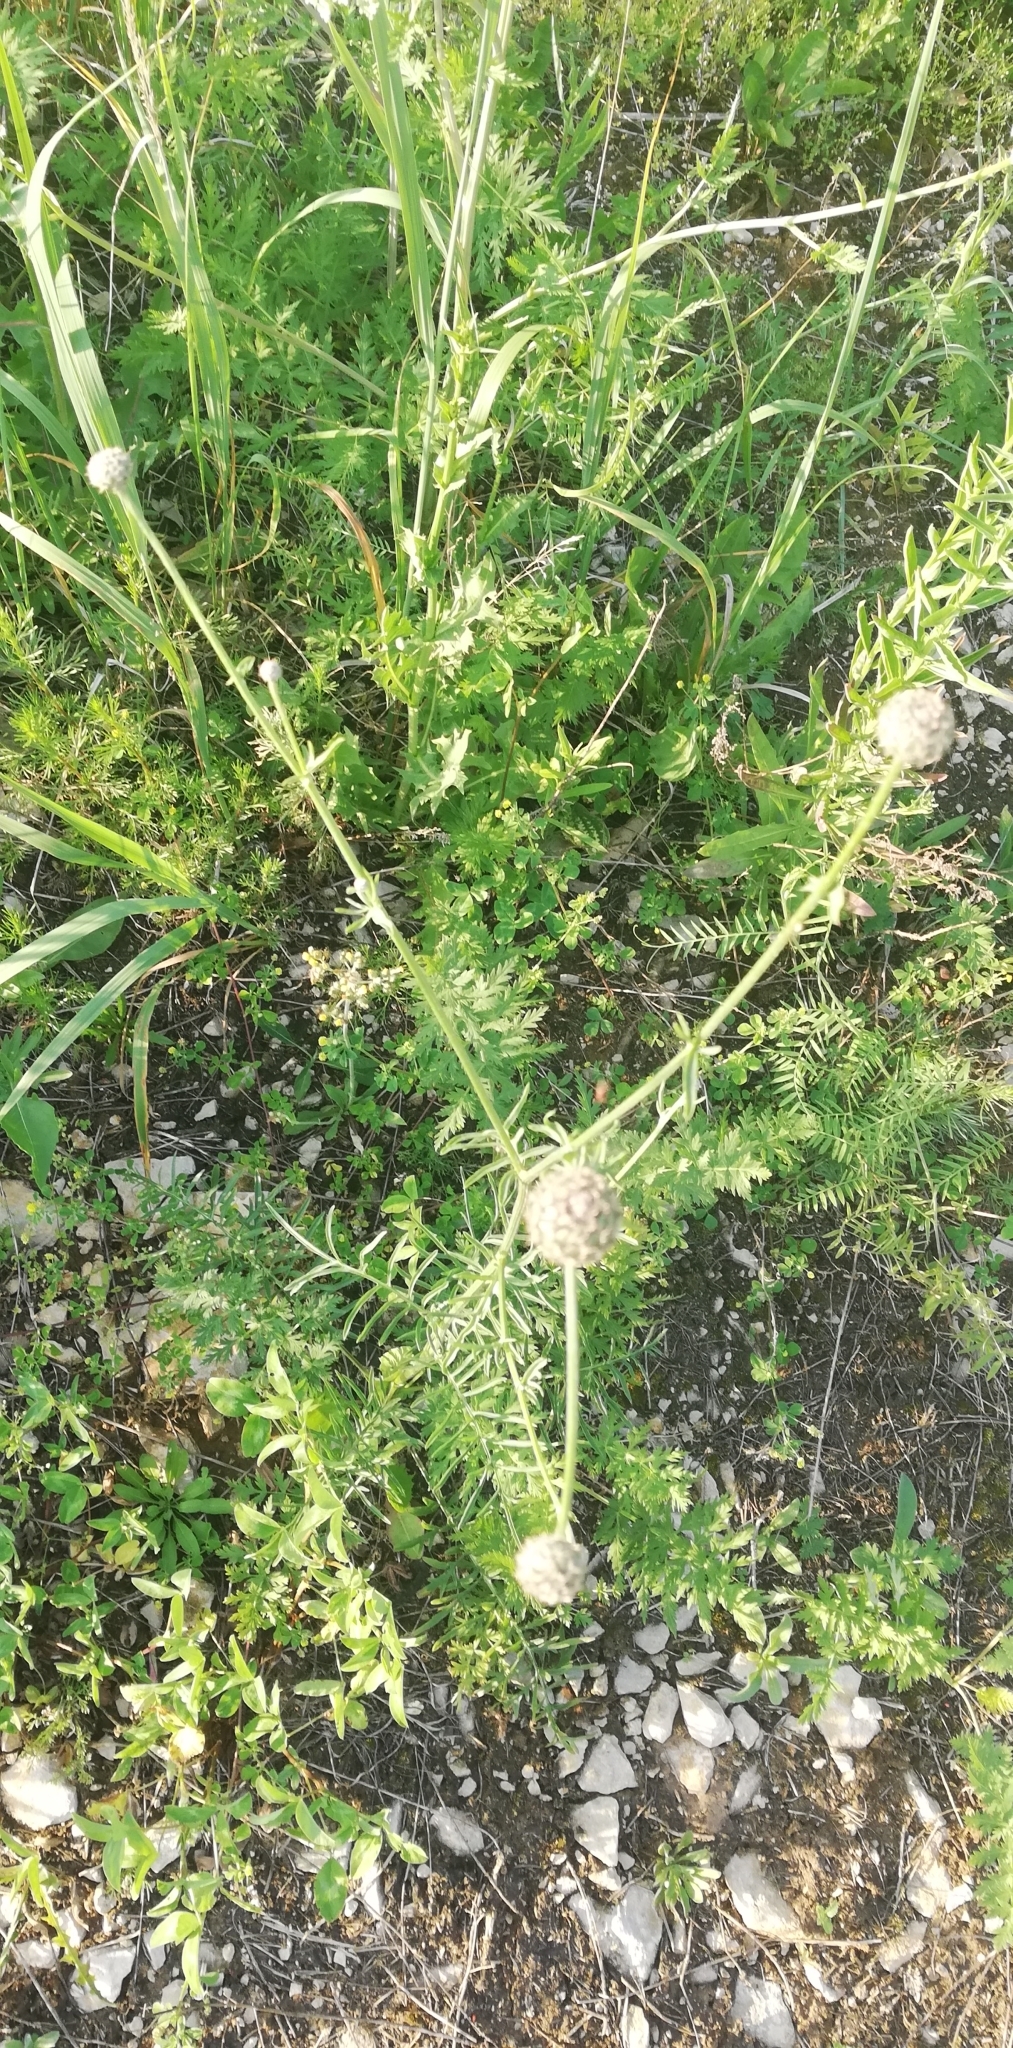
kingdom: Plantae
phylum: Tracheophyta
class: Magnoliopsida
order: Asterales
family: Asteraceae
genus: Centaurea
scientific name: Centaurea scabiosa
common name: Greater knapweed
